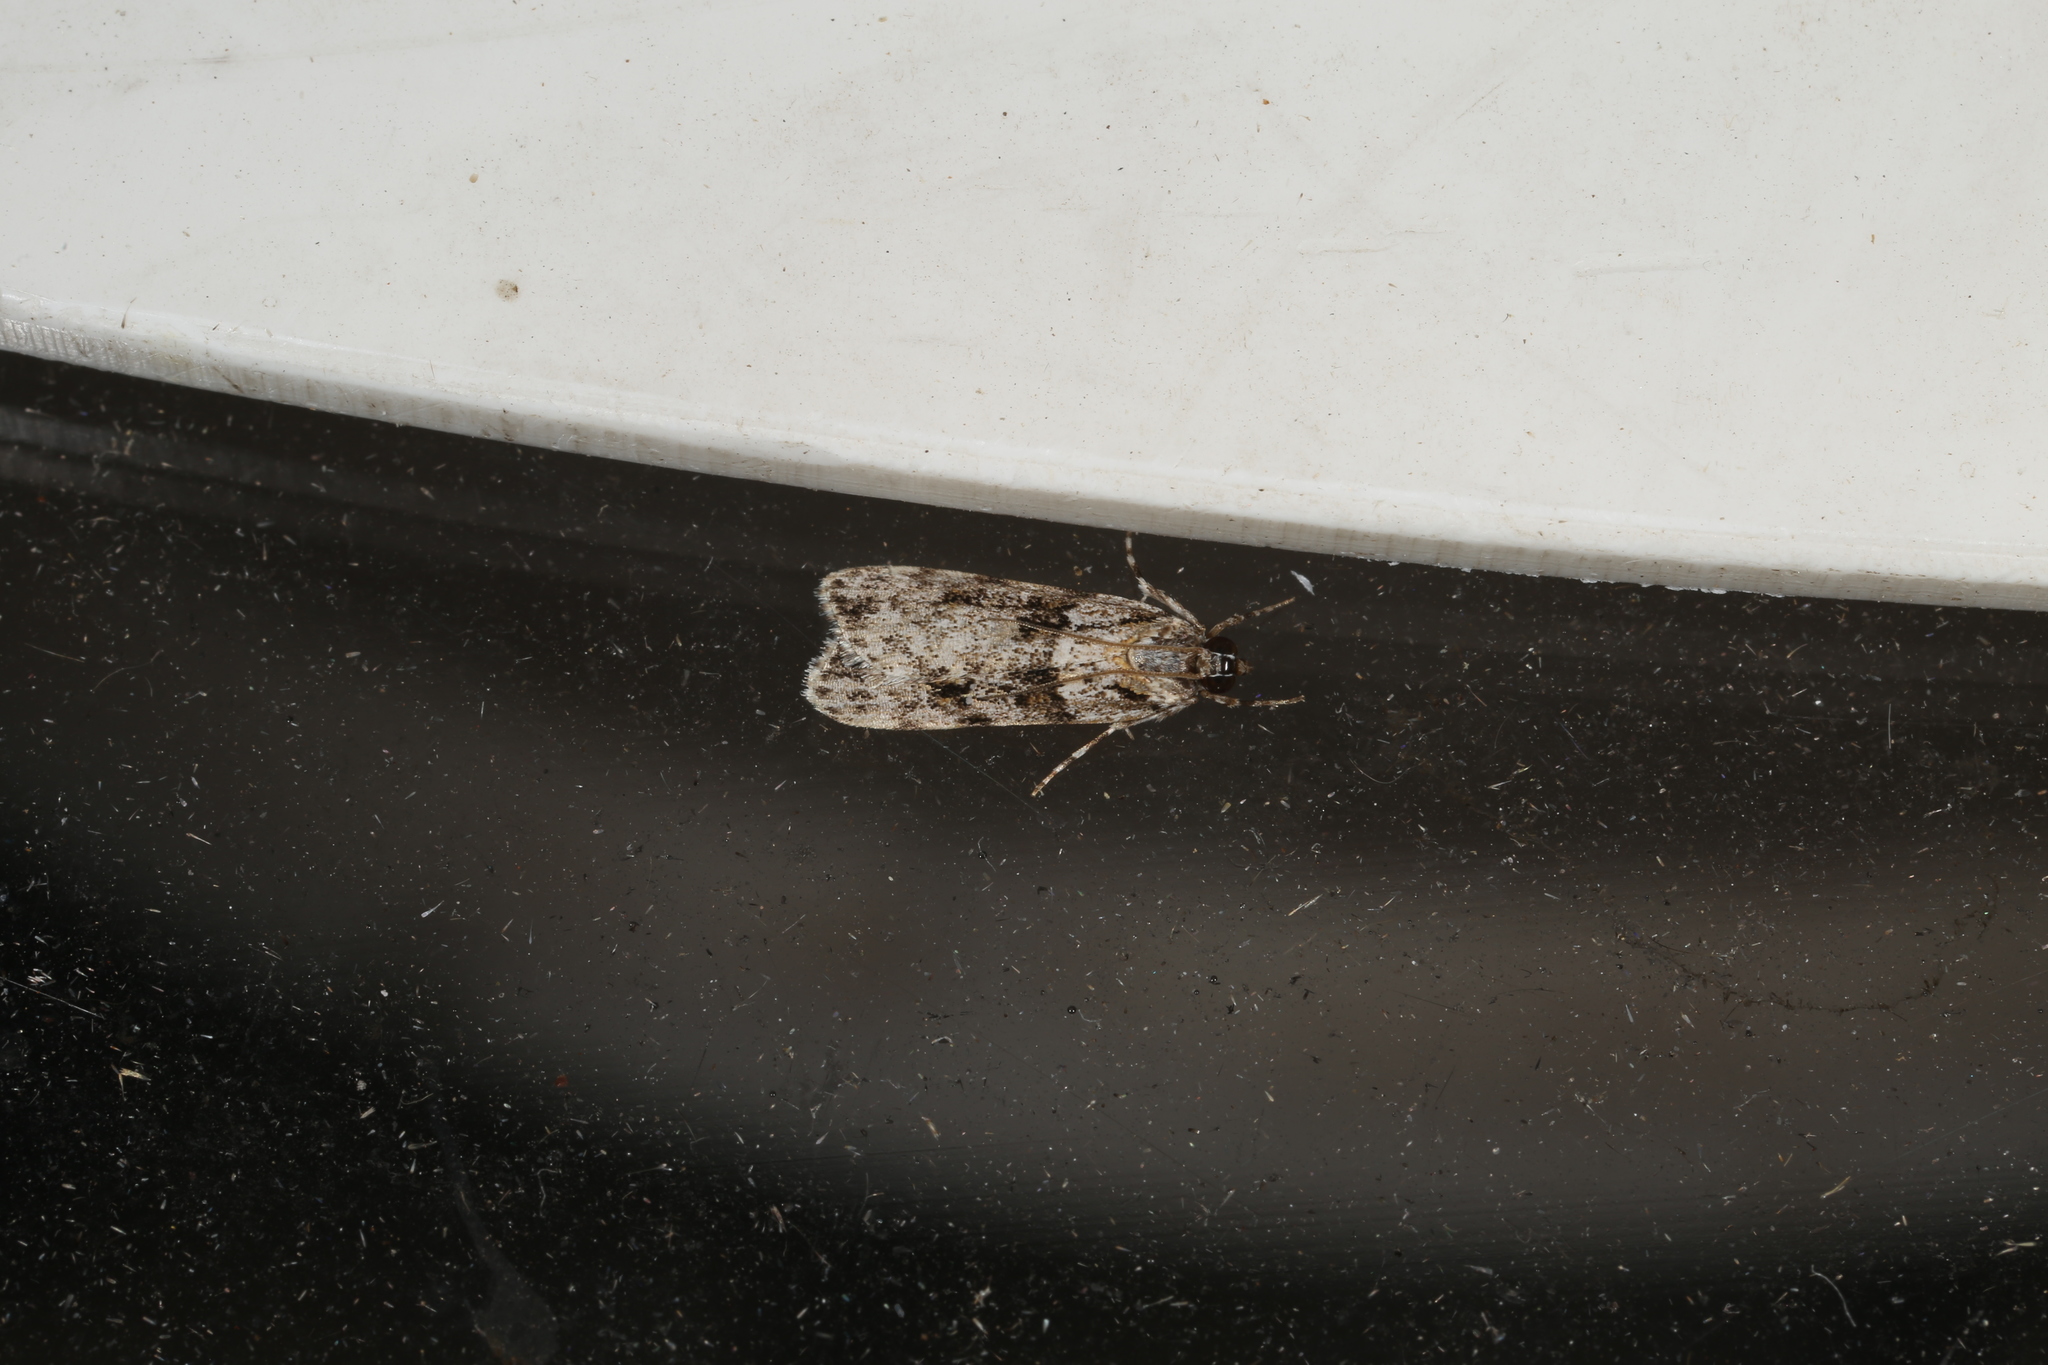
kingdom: Animalia
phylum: Arthropoda
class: Insecta
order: Lepidoptera
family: Crambidae
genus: Scoparia
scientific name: Scoparia chiasta
